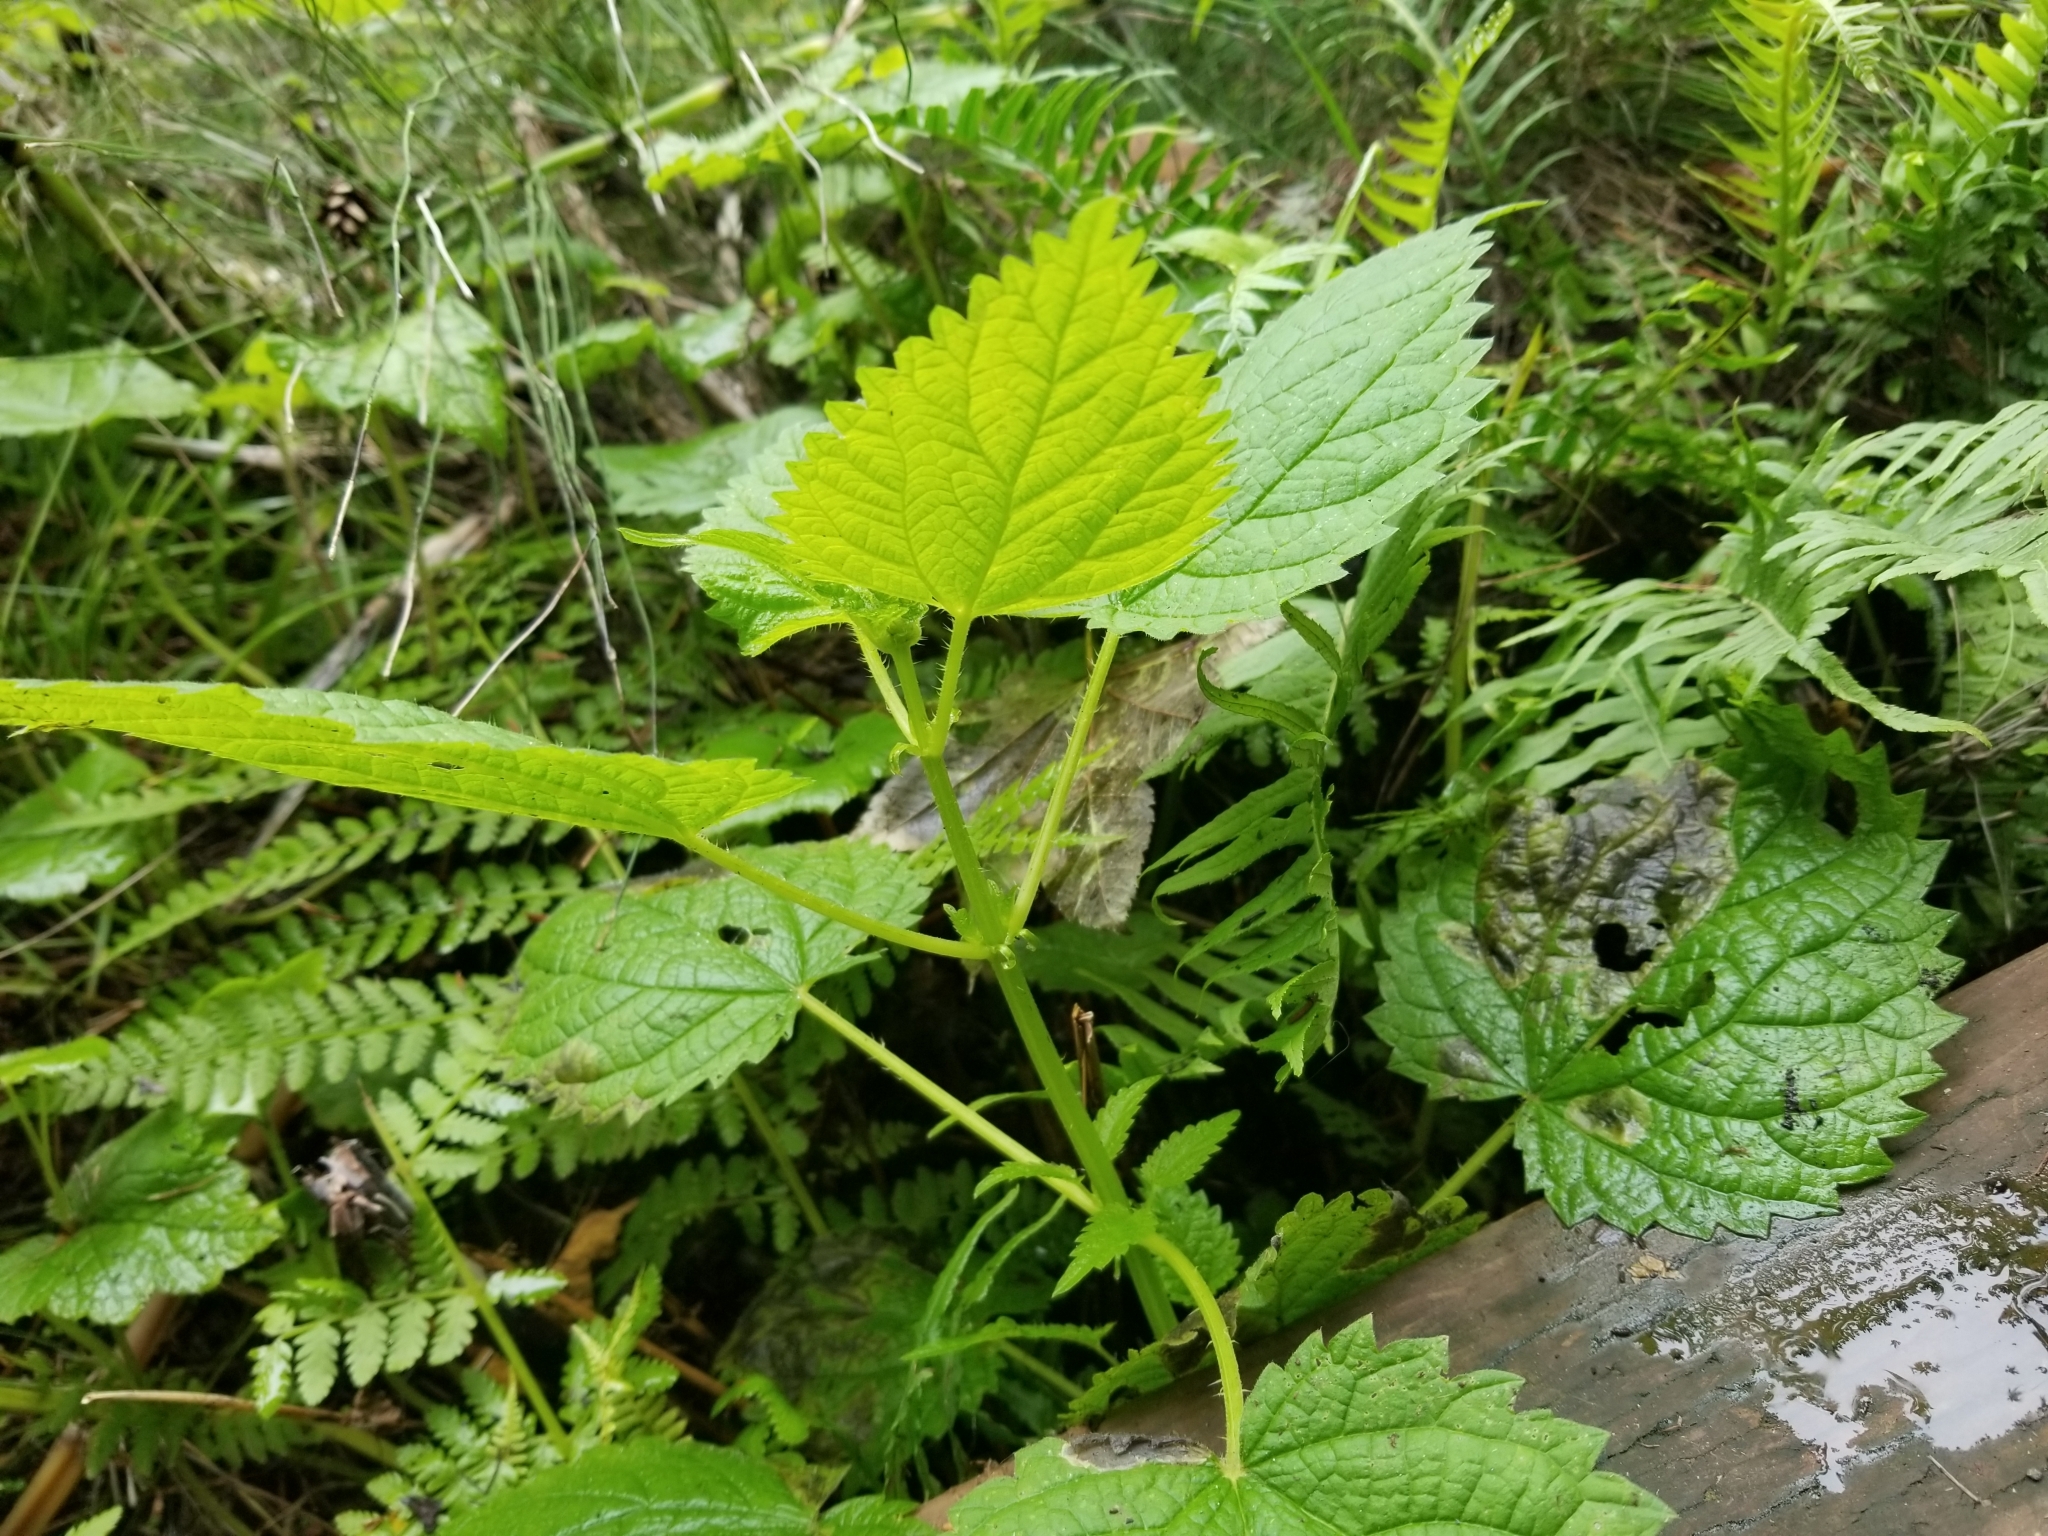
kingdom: Plantae
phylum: Tracheophyta
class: Magnoliopsida
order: Rosales
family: Urticaceae
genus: Urtica
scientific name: Urtica gracilis
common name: Slender stinging nettle
